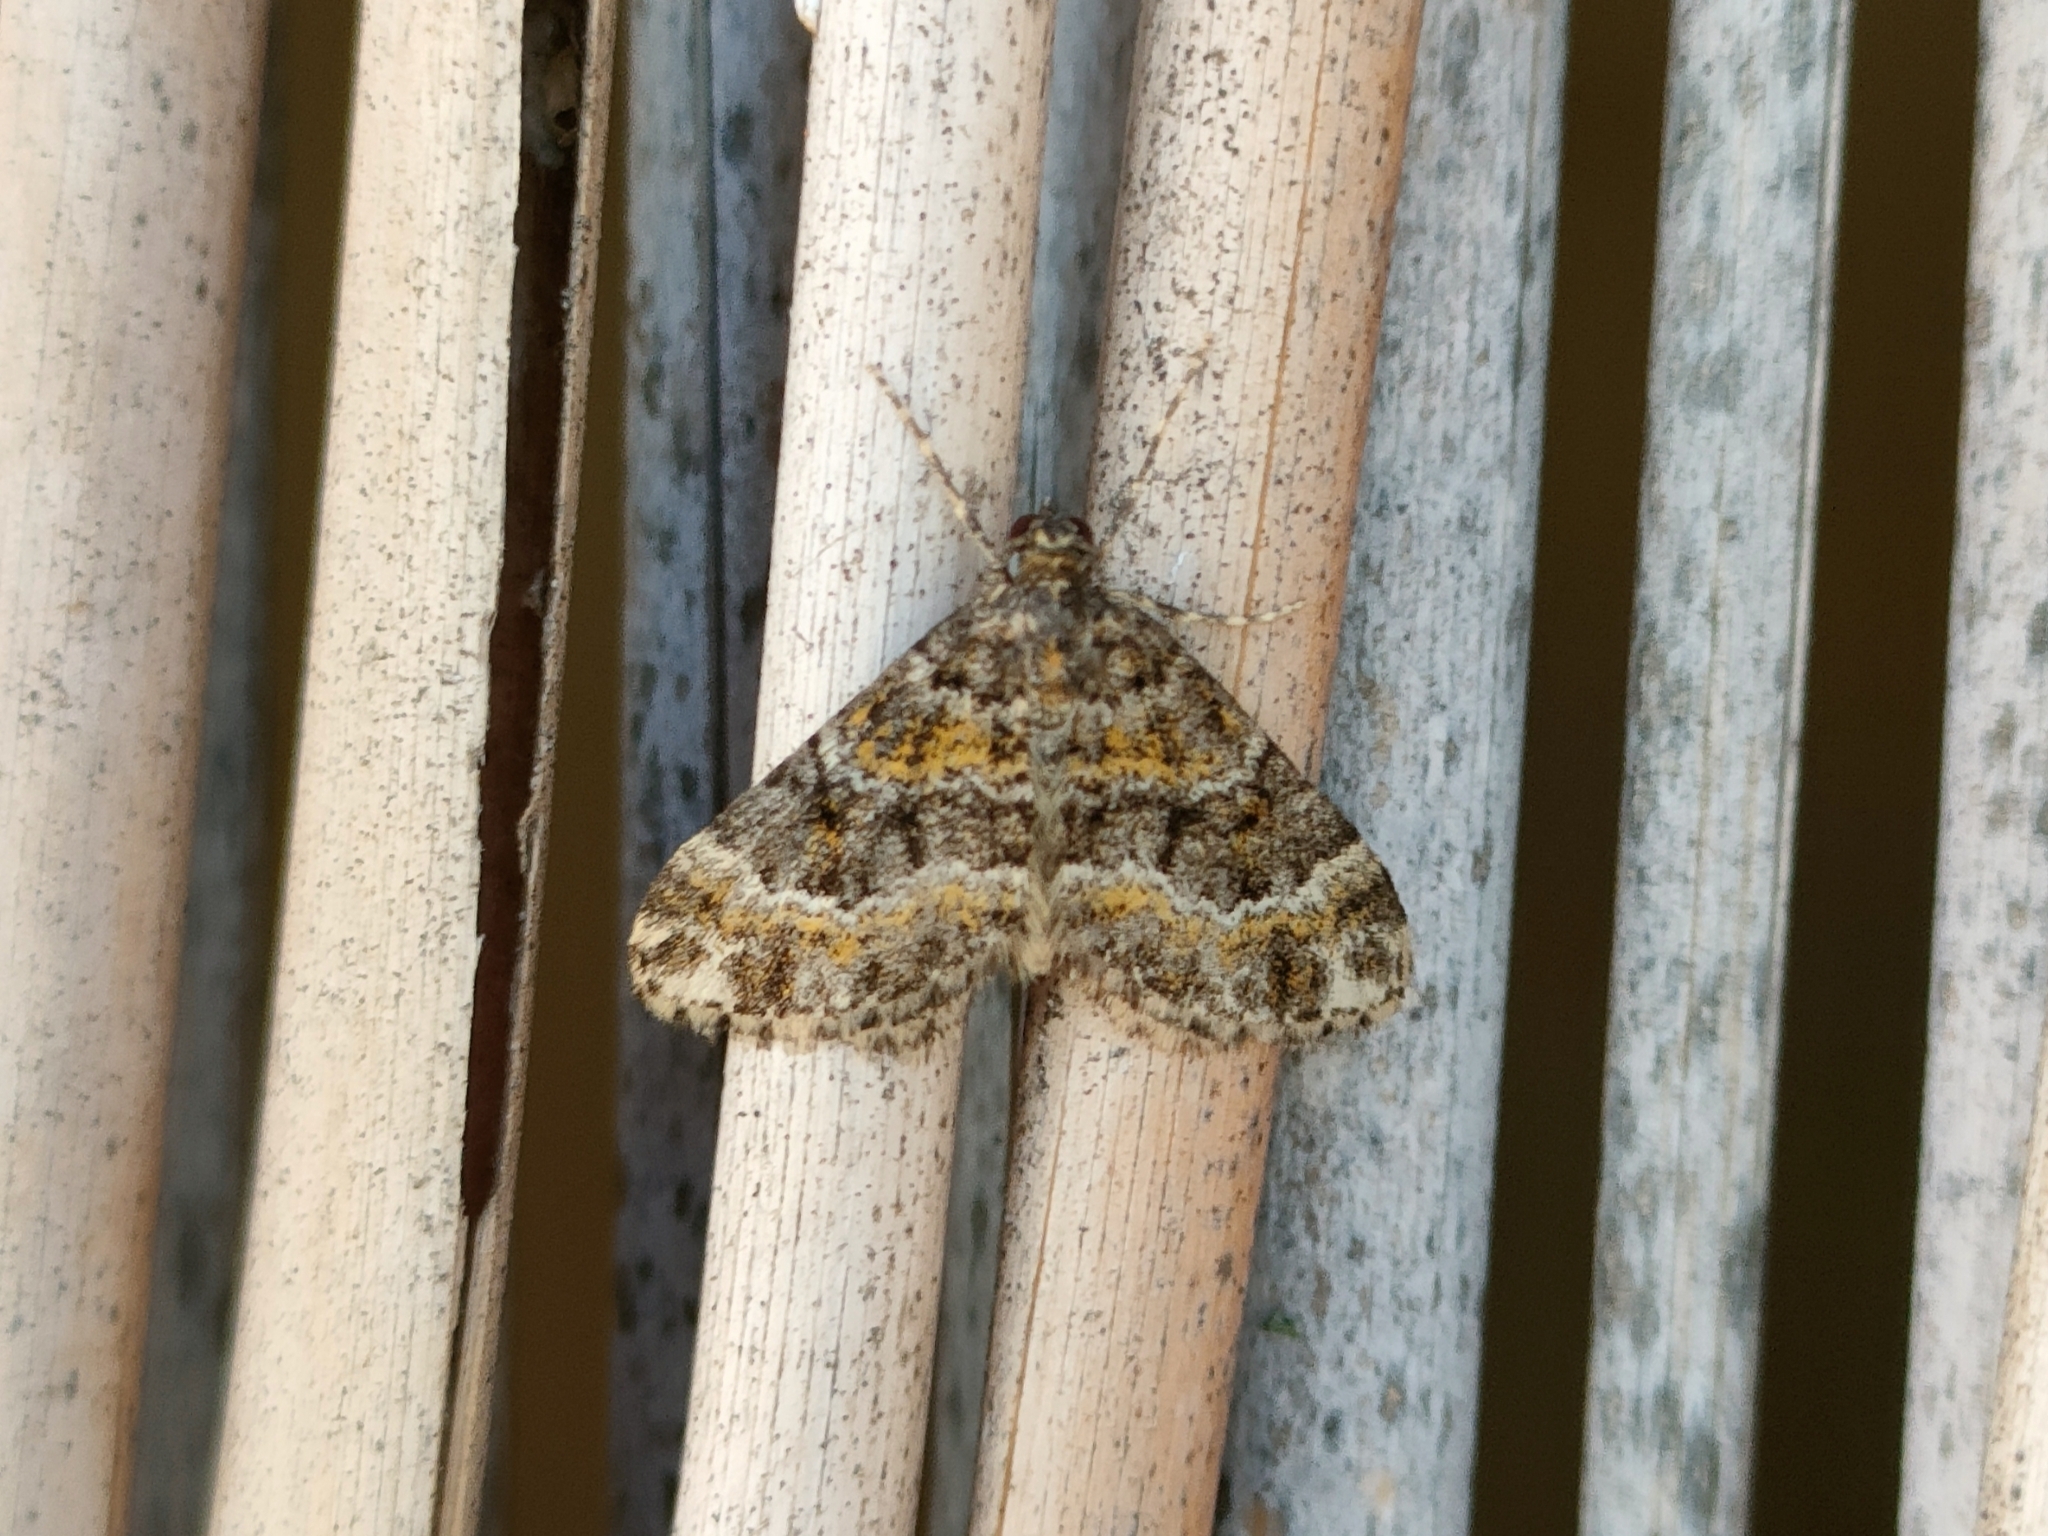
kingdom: Animalia
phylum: Arthropoda
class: Insecta
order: Lepidoptera
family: Geometridae
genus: Hospitalia
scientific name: Hospitalia flavolineata
